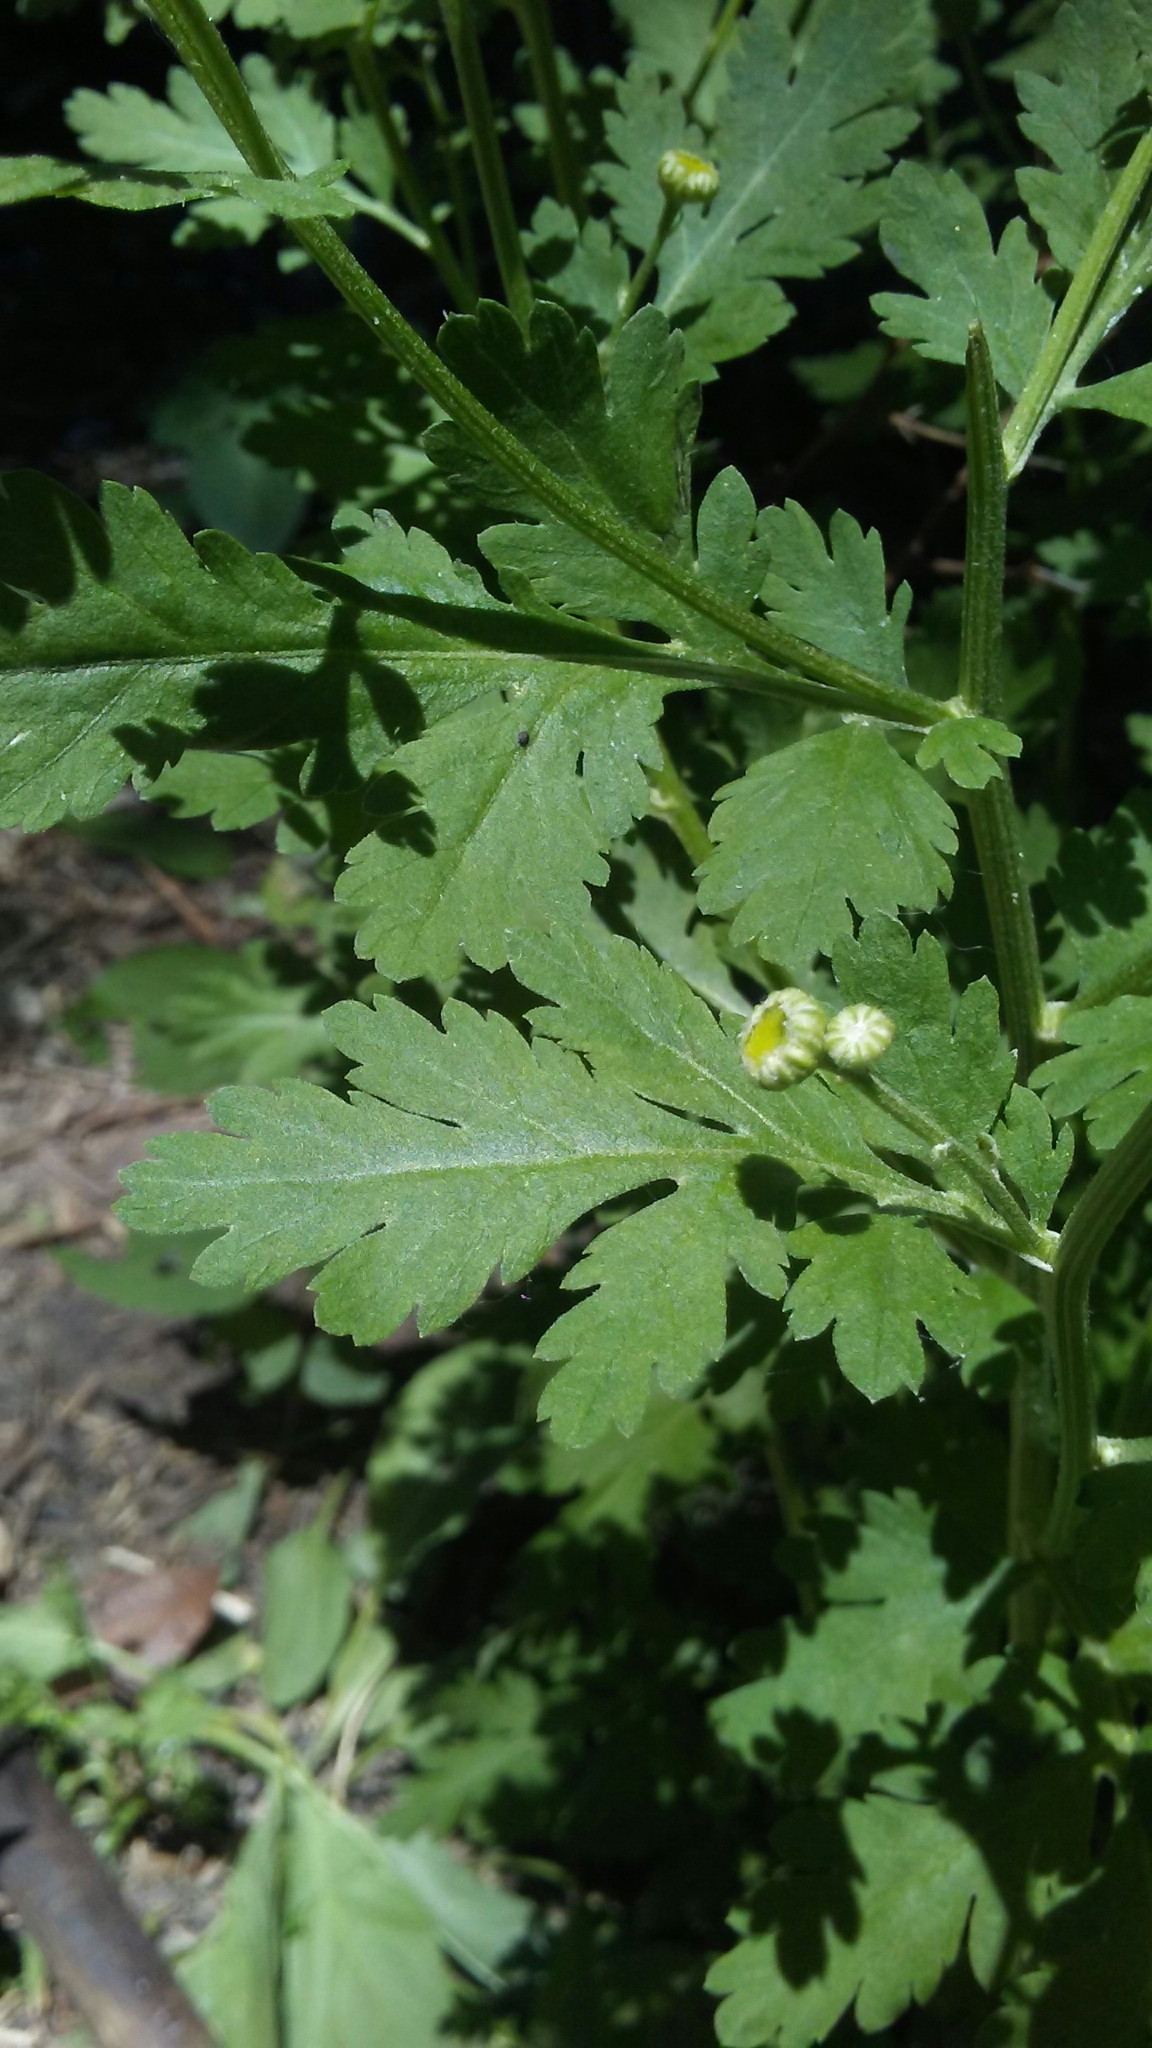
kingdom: Plantae
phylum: Tracheophyta
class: Magnoliopsida
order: Asterales
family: Asteraceae
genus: Tanacetum
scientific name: Tanacetum parthenium
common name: Feverfew
